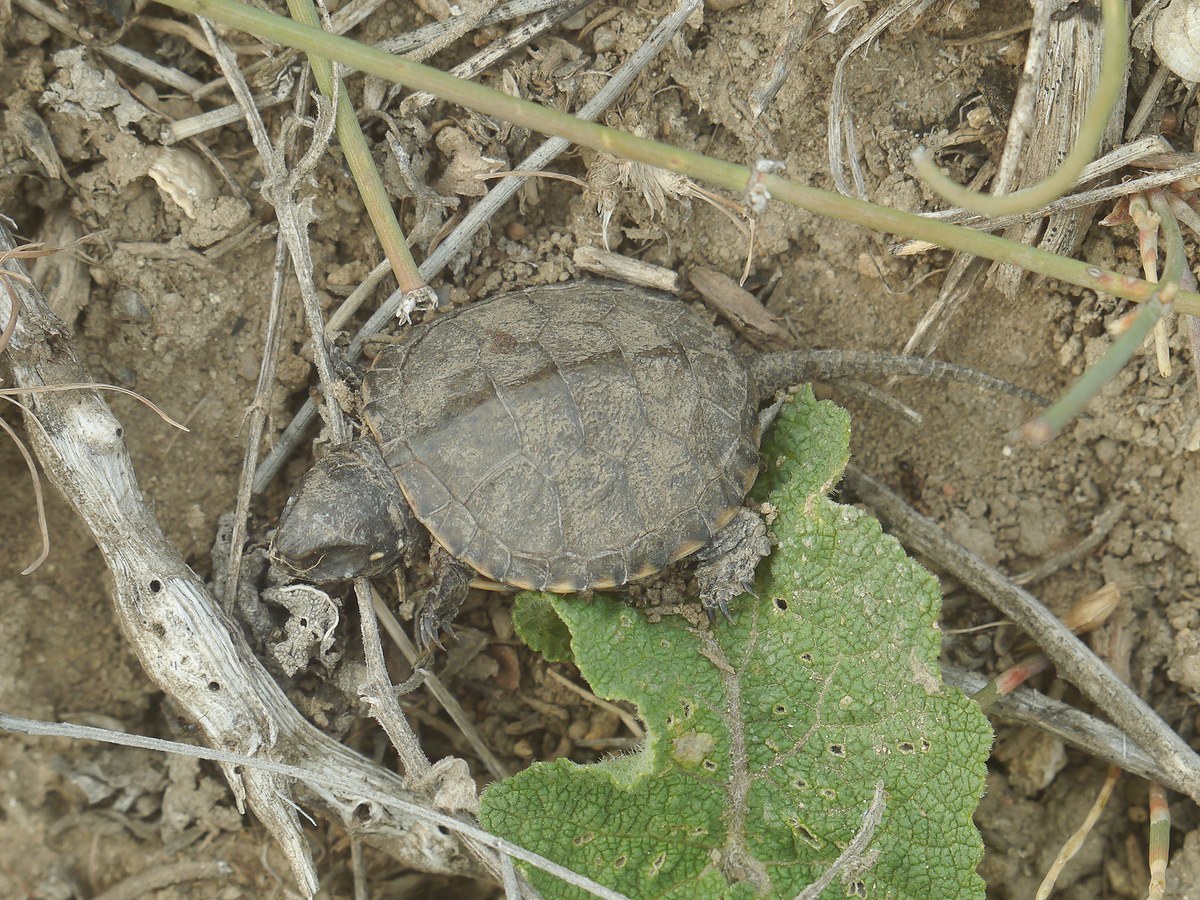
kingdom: Animalia
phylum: Chordata
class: Testudines
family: Emydidae
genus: Emys
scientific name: Emys orbicularis
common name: European pond turtle
